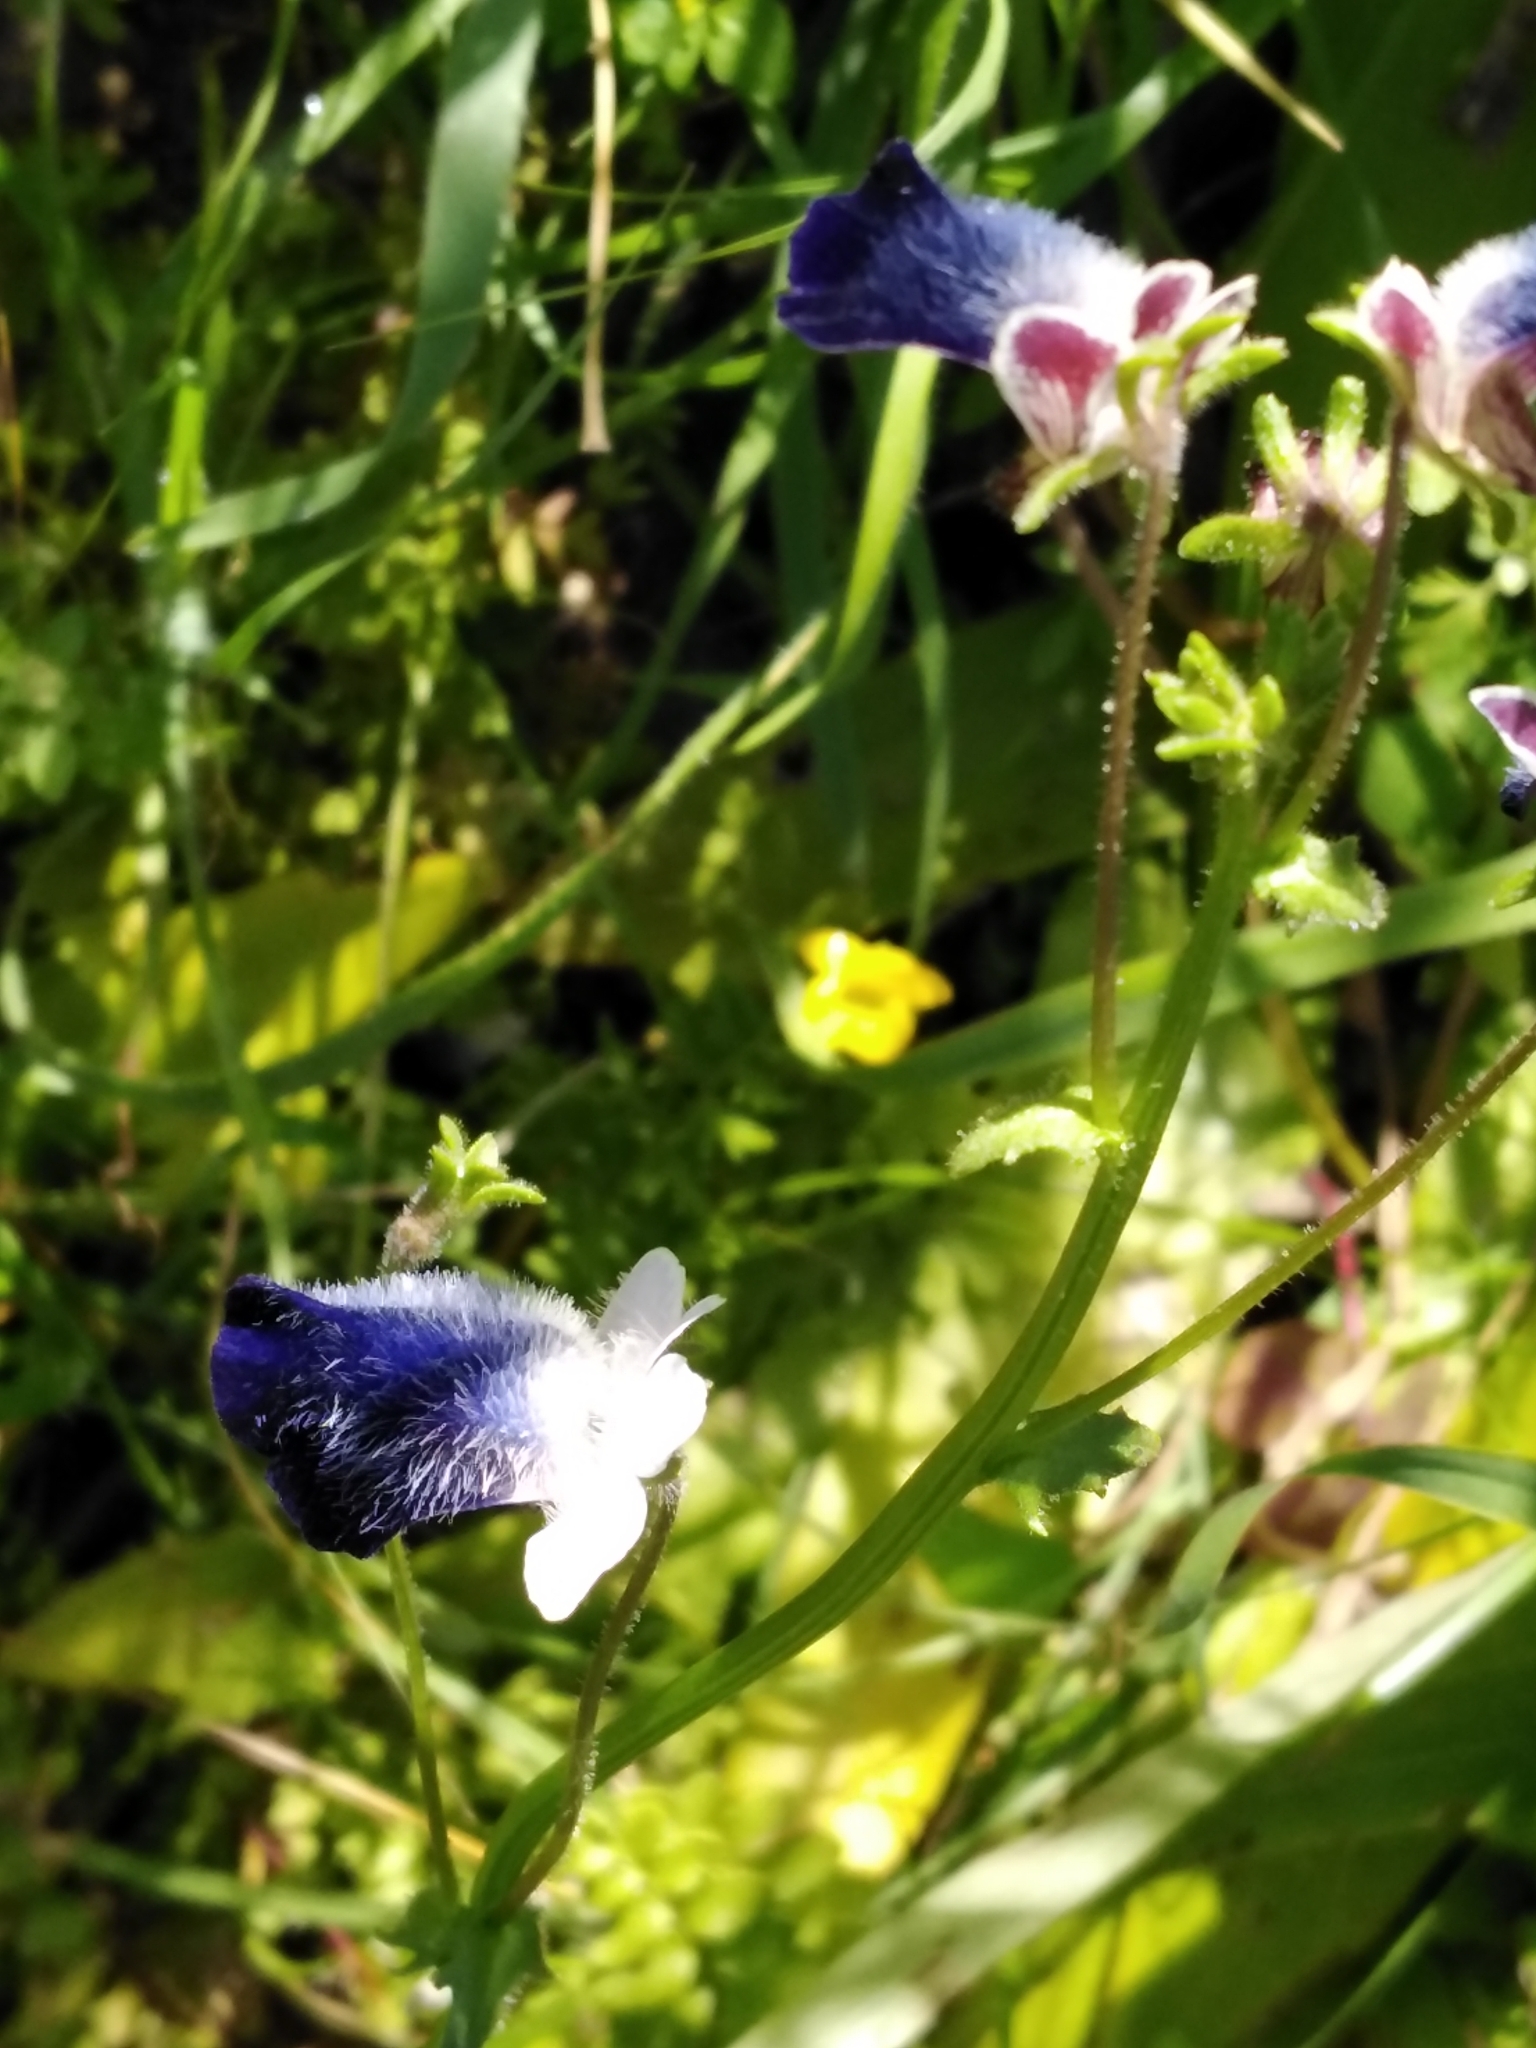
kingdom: Plantae
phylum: Tracheophyta
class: Magnoliopsida
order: Lamiales
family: Scrophulariaceae
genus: Nemesia
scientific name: Nemesia barbata
